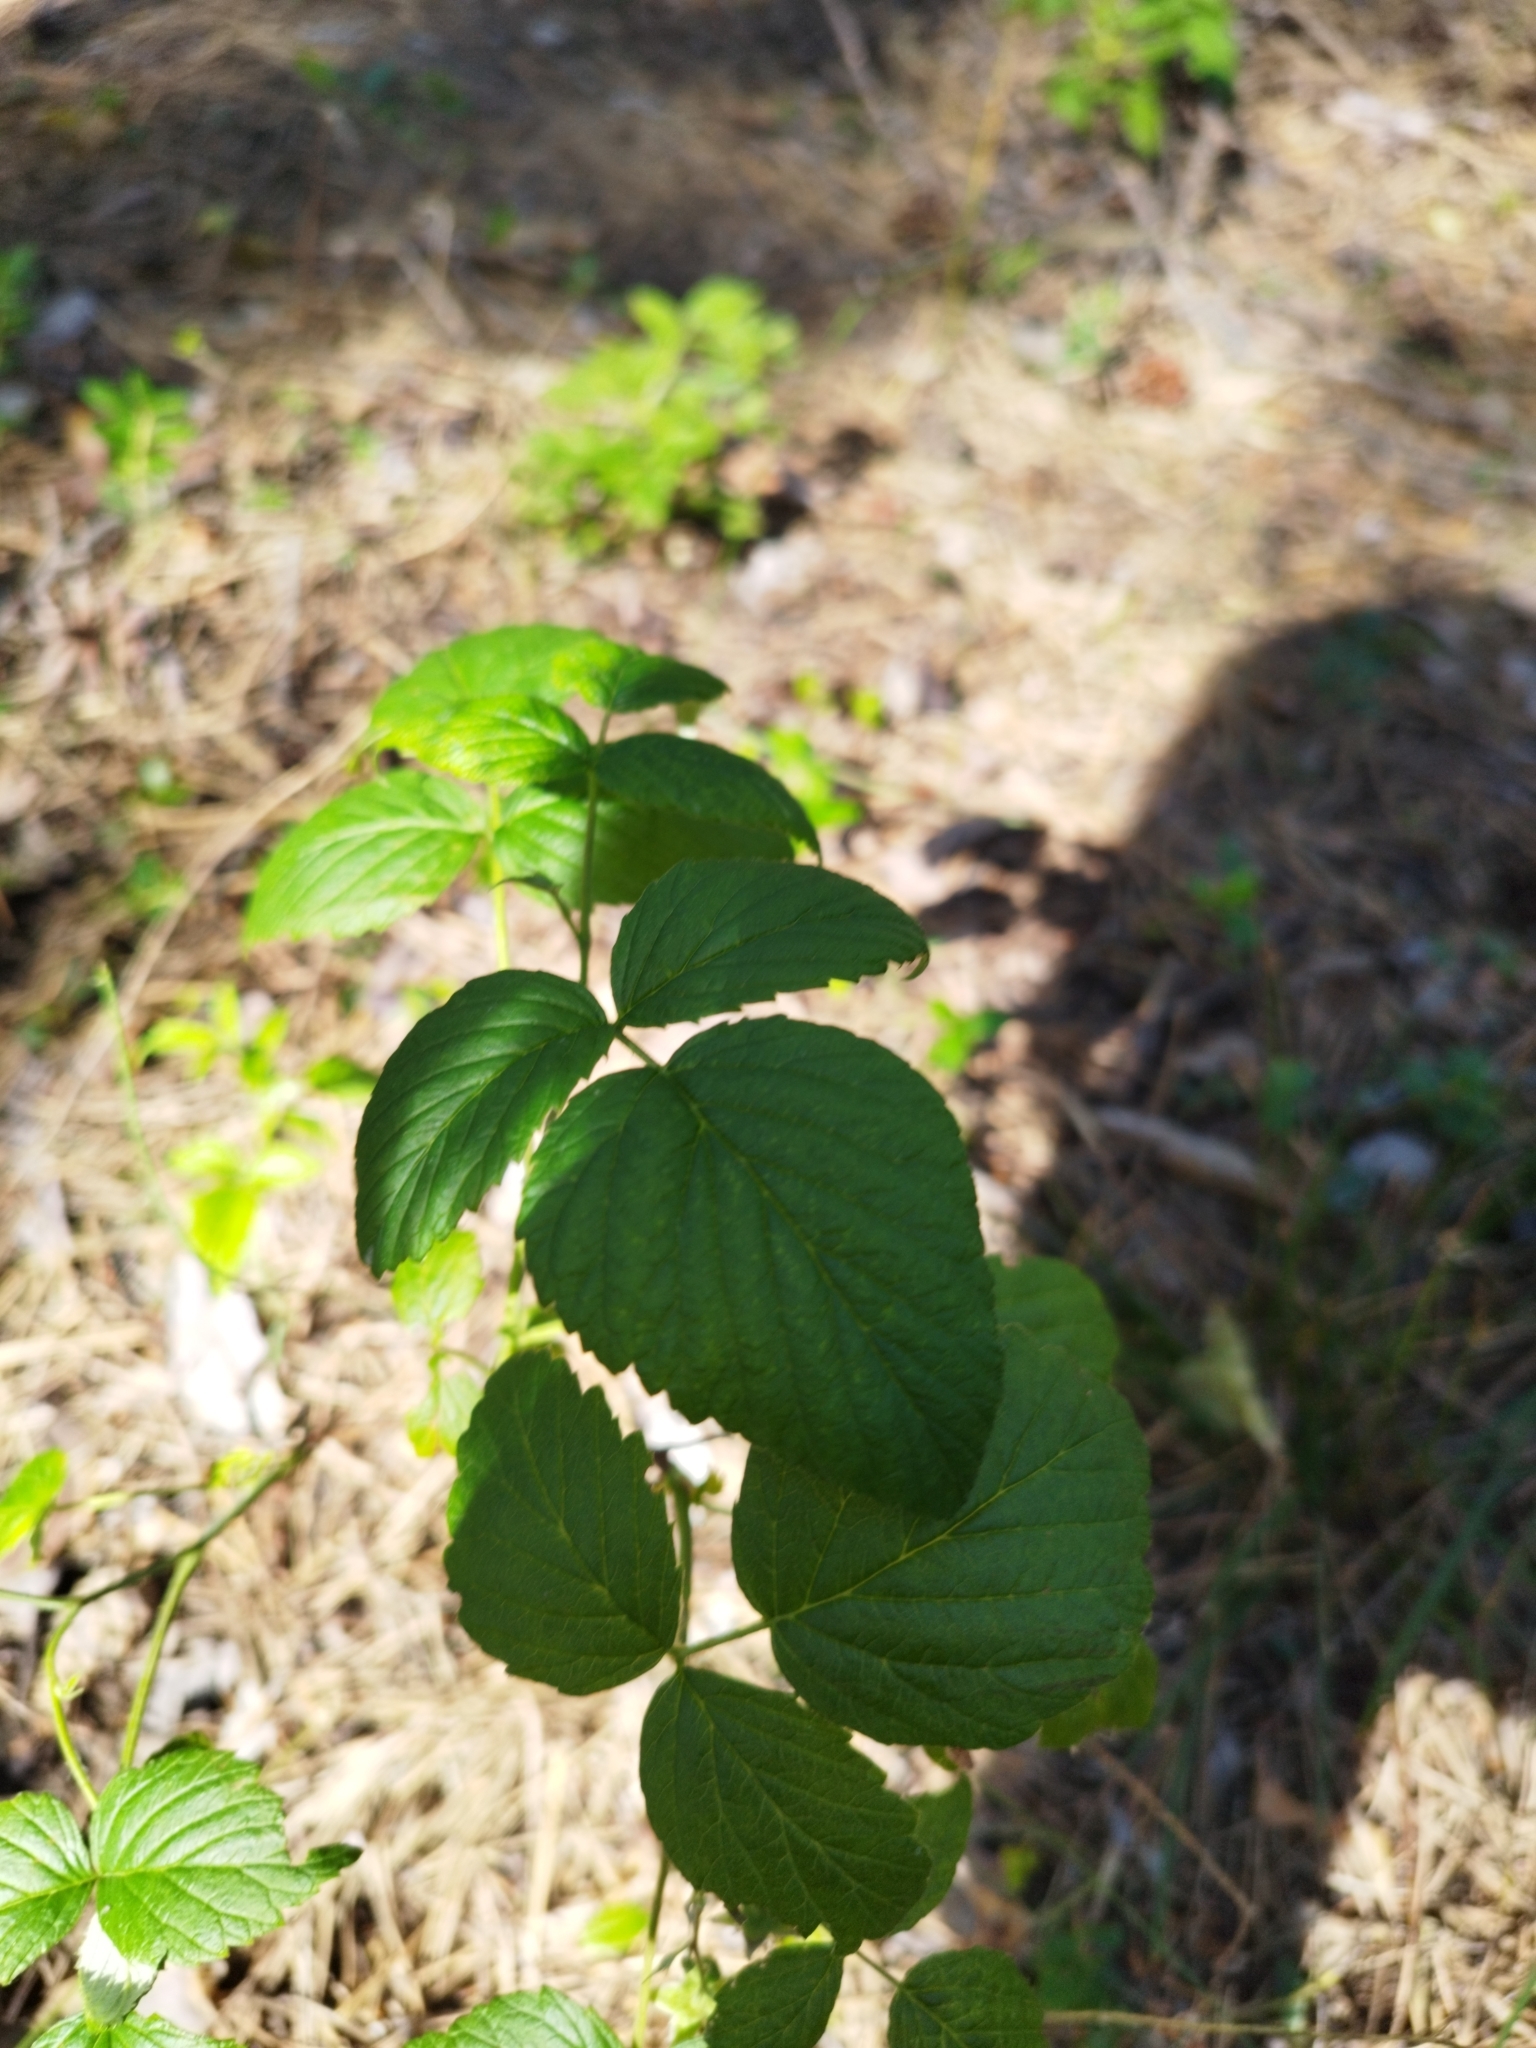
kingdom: Plantae
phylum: Tracheophyta
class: Magnoliopsida
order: Rosales
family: Rosaceae
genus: Rubus
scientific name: Rubus idaeus
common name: Raspberry
